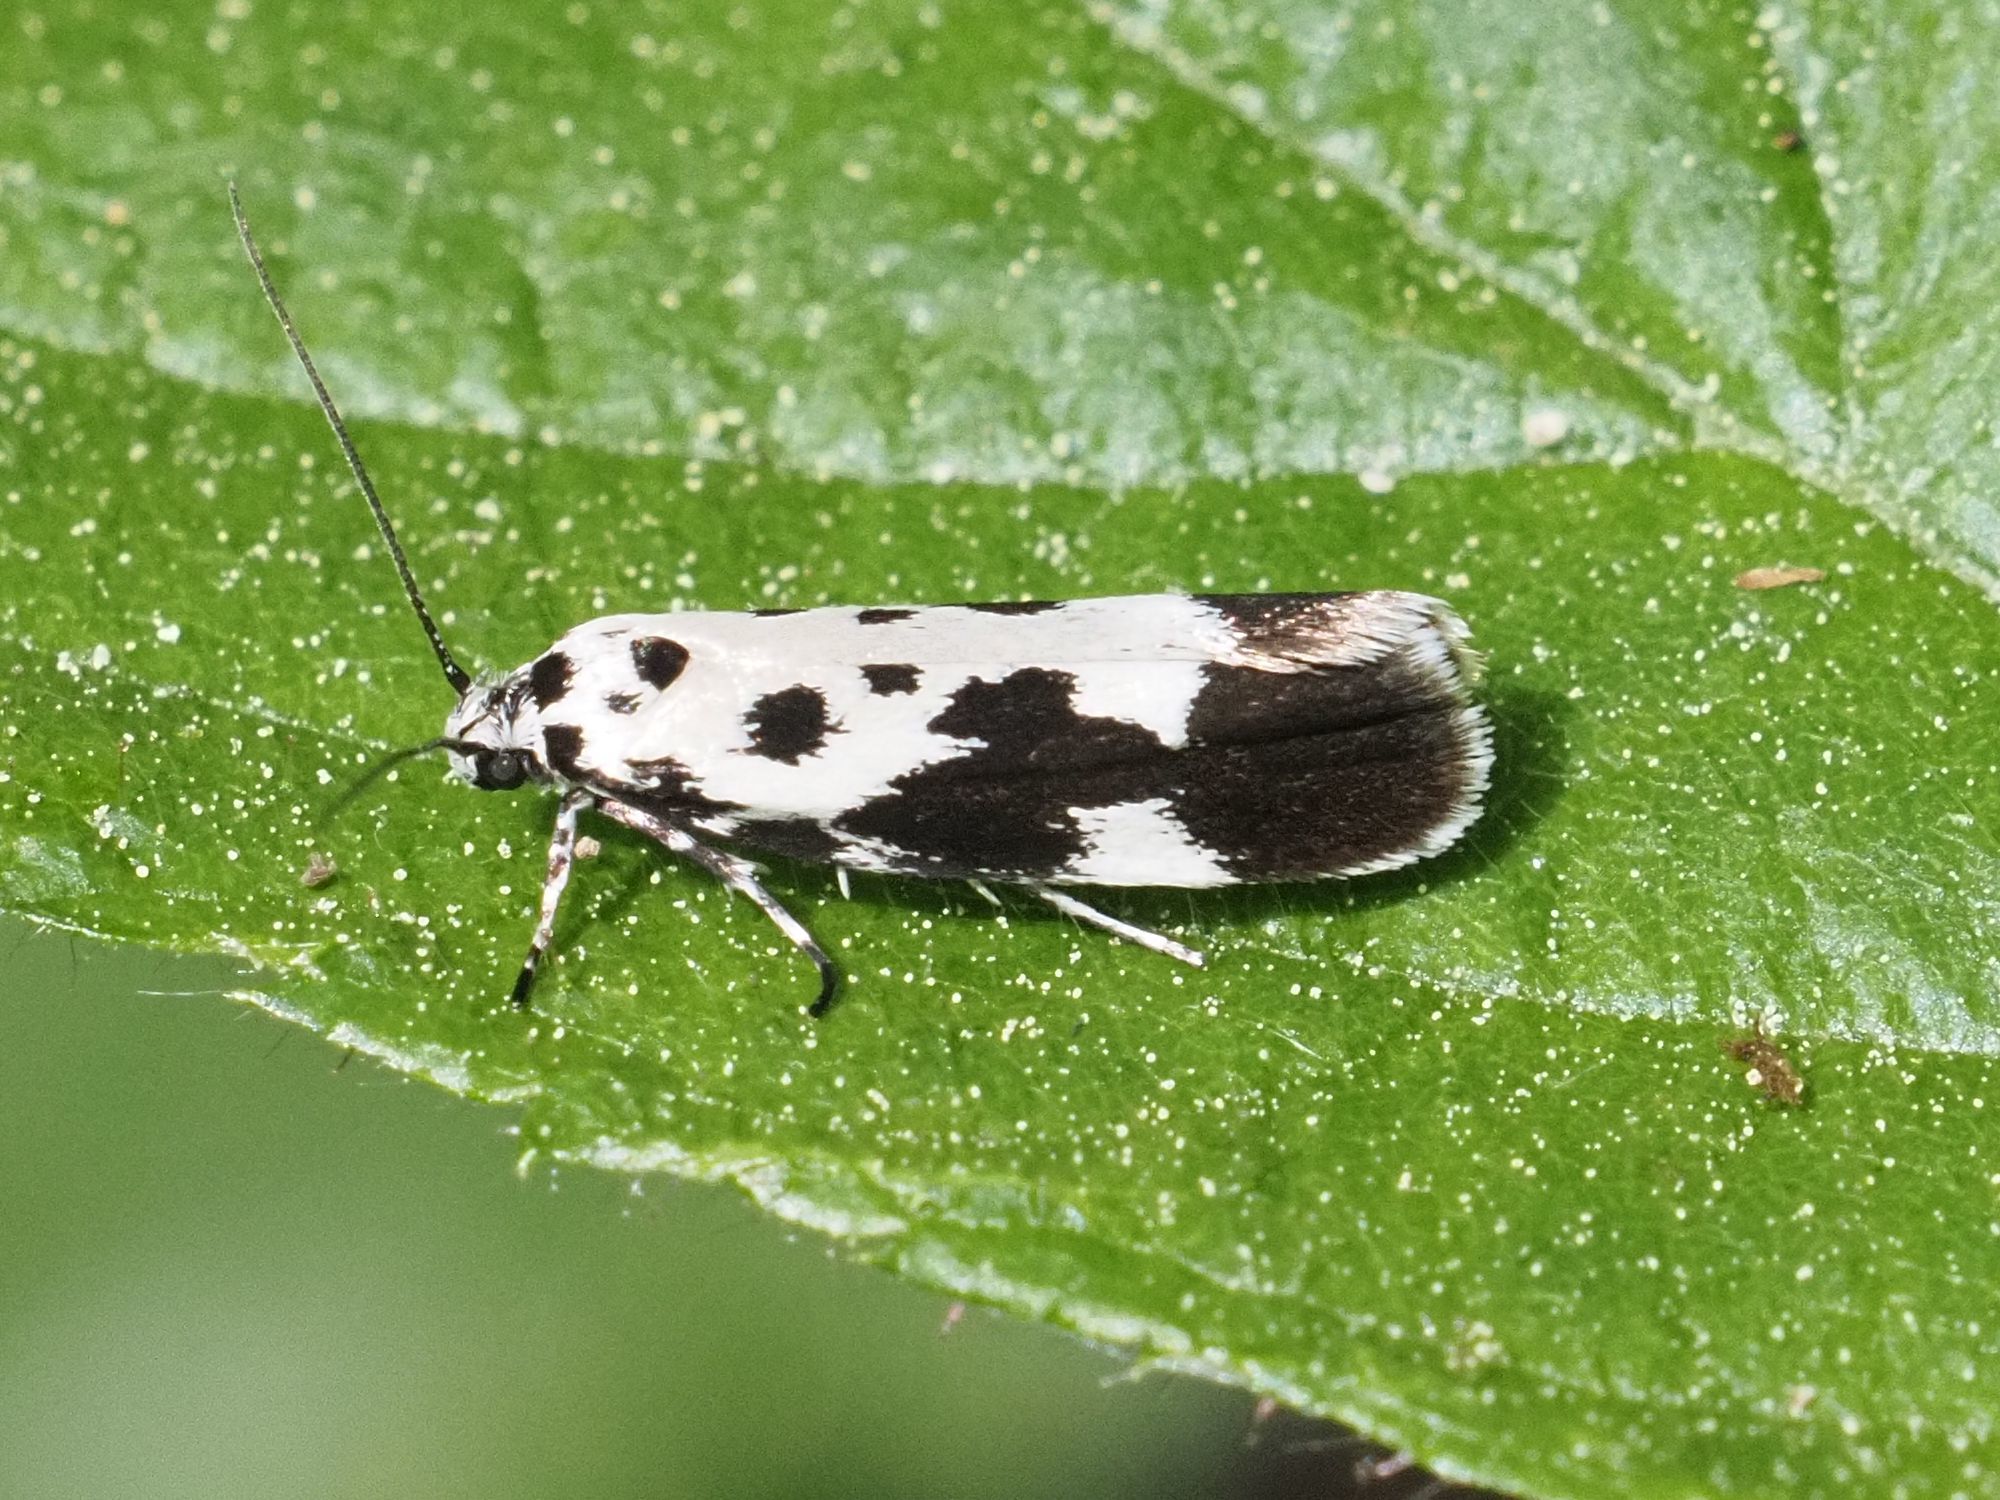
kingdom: Animalia
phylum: Arthropoda
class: Insecta
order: Lepidoptera
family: Ethmiidae
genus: Ethmia
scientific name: Ethmia quadrillella
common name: Comfrey ermel
